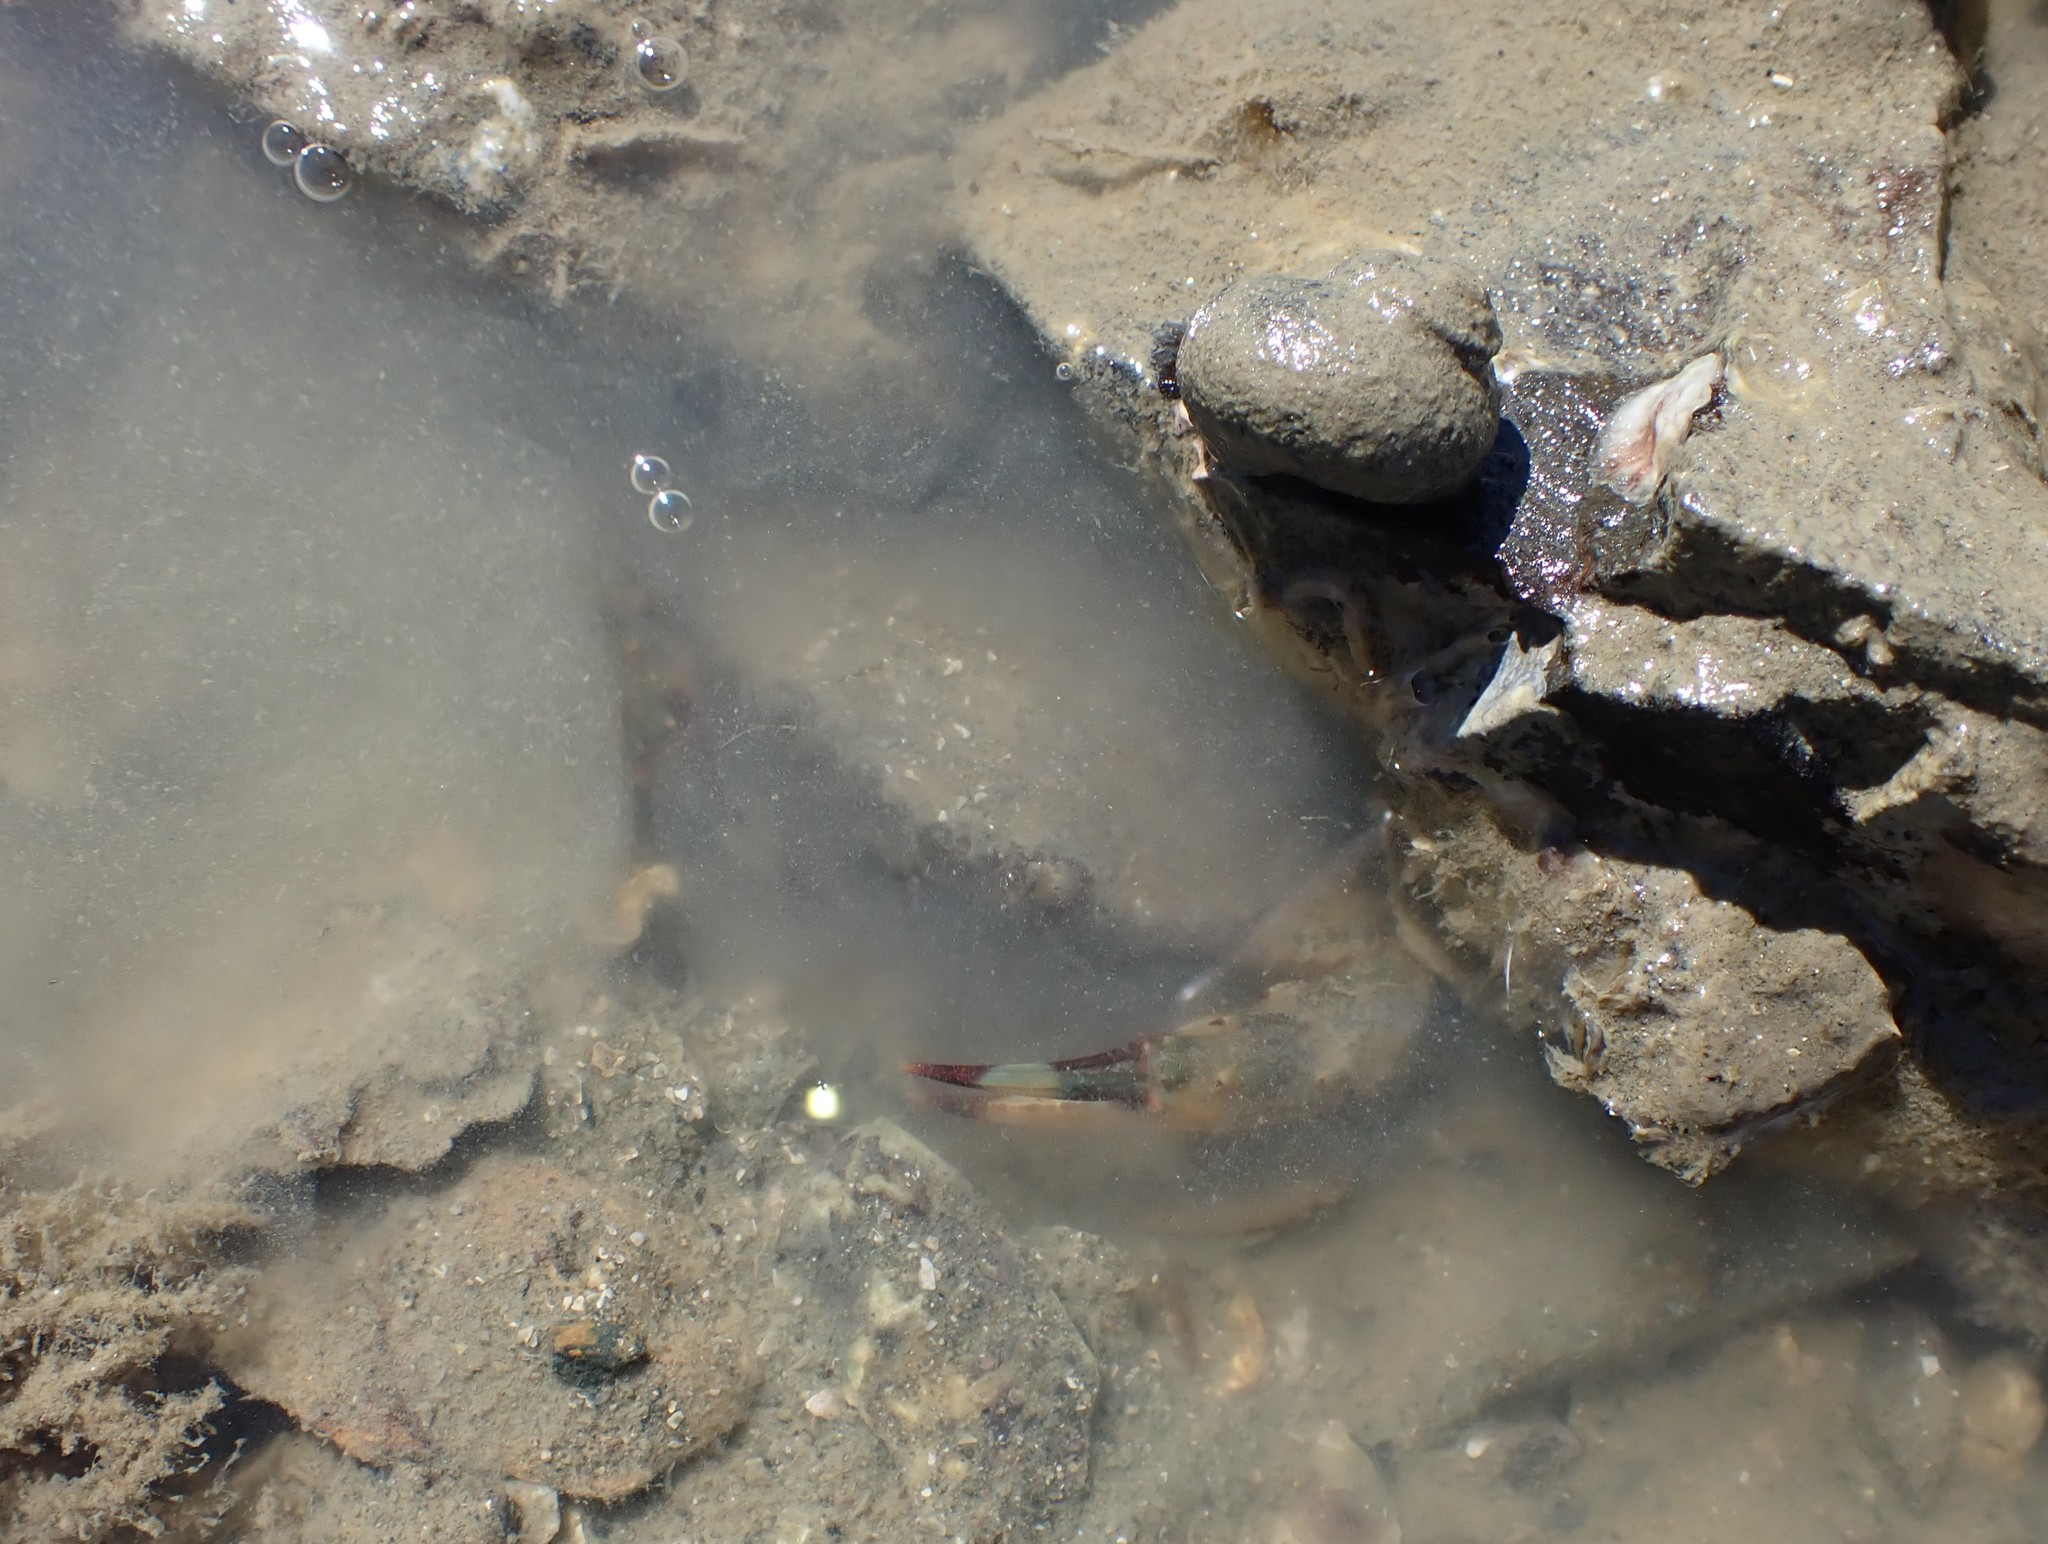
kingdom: Animalia
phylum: Arthropoda
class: Malacostraca
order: Decapoda
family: Portunidae
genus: Charybdis
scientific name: Charybdis japonica
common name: Asian paddle crab
